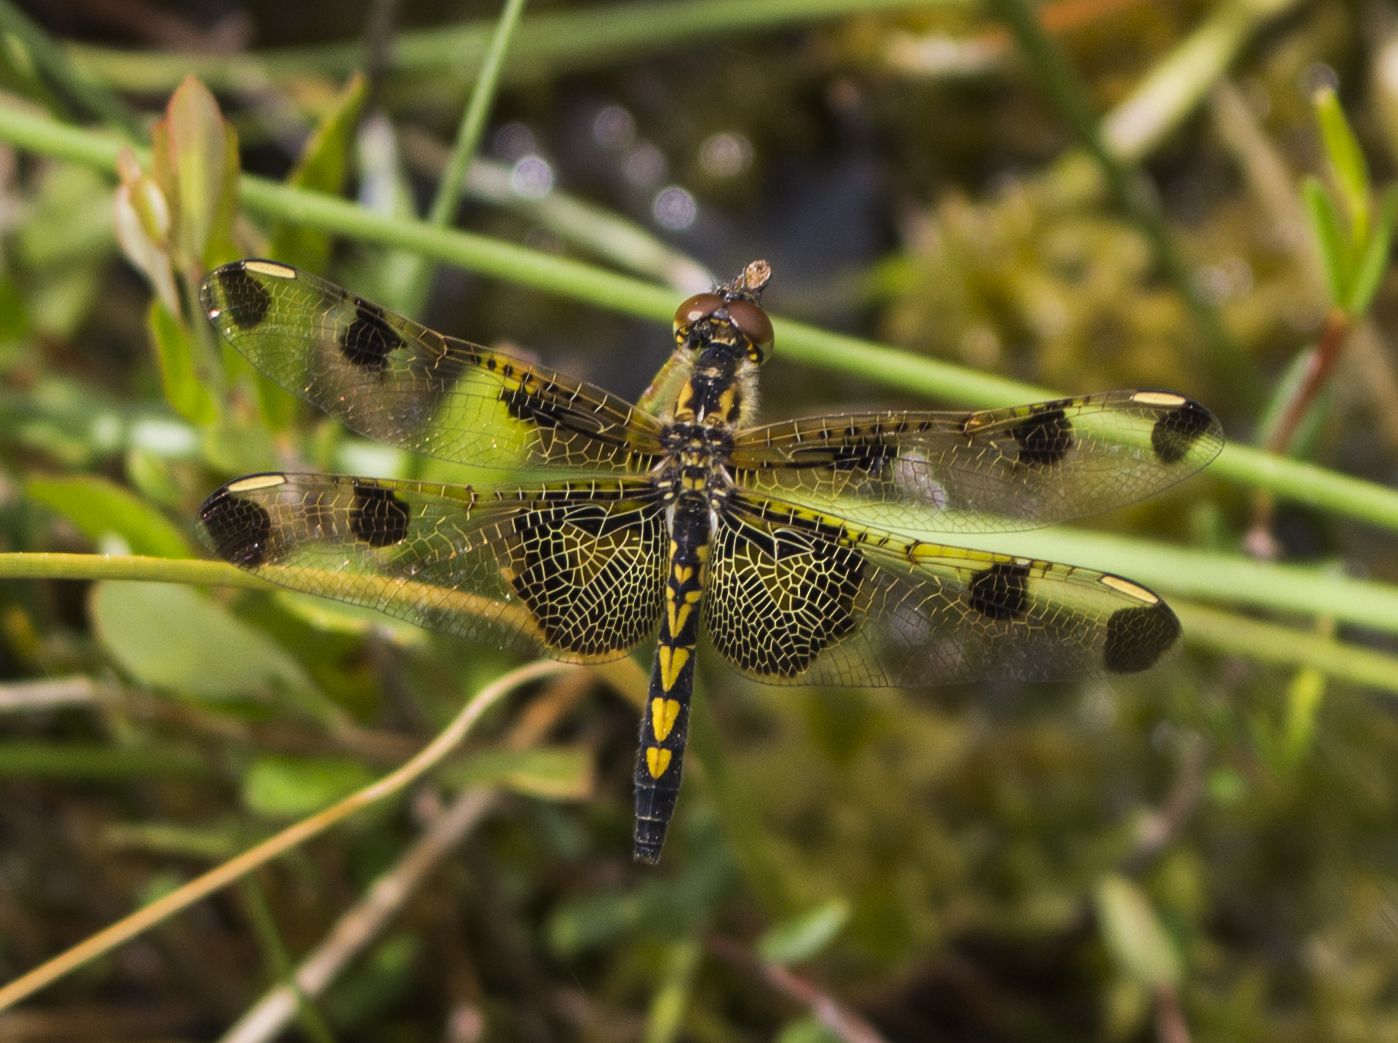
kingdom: Animalia
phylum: Arthropoda
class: Insecta
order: Odonata
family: Libellulidae
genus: Celithemis
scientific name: Celithemis elisa
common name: Calico pennant
